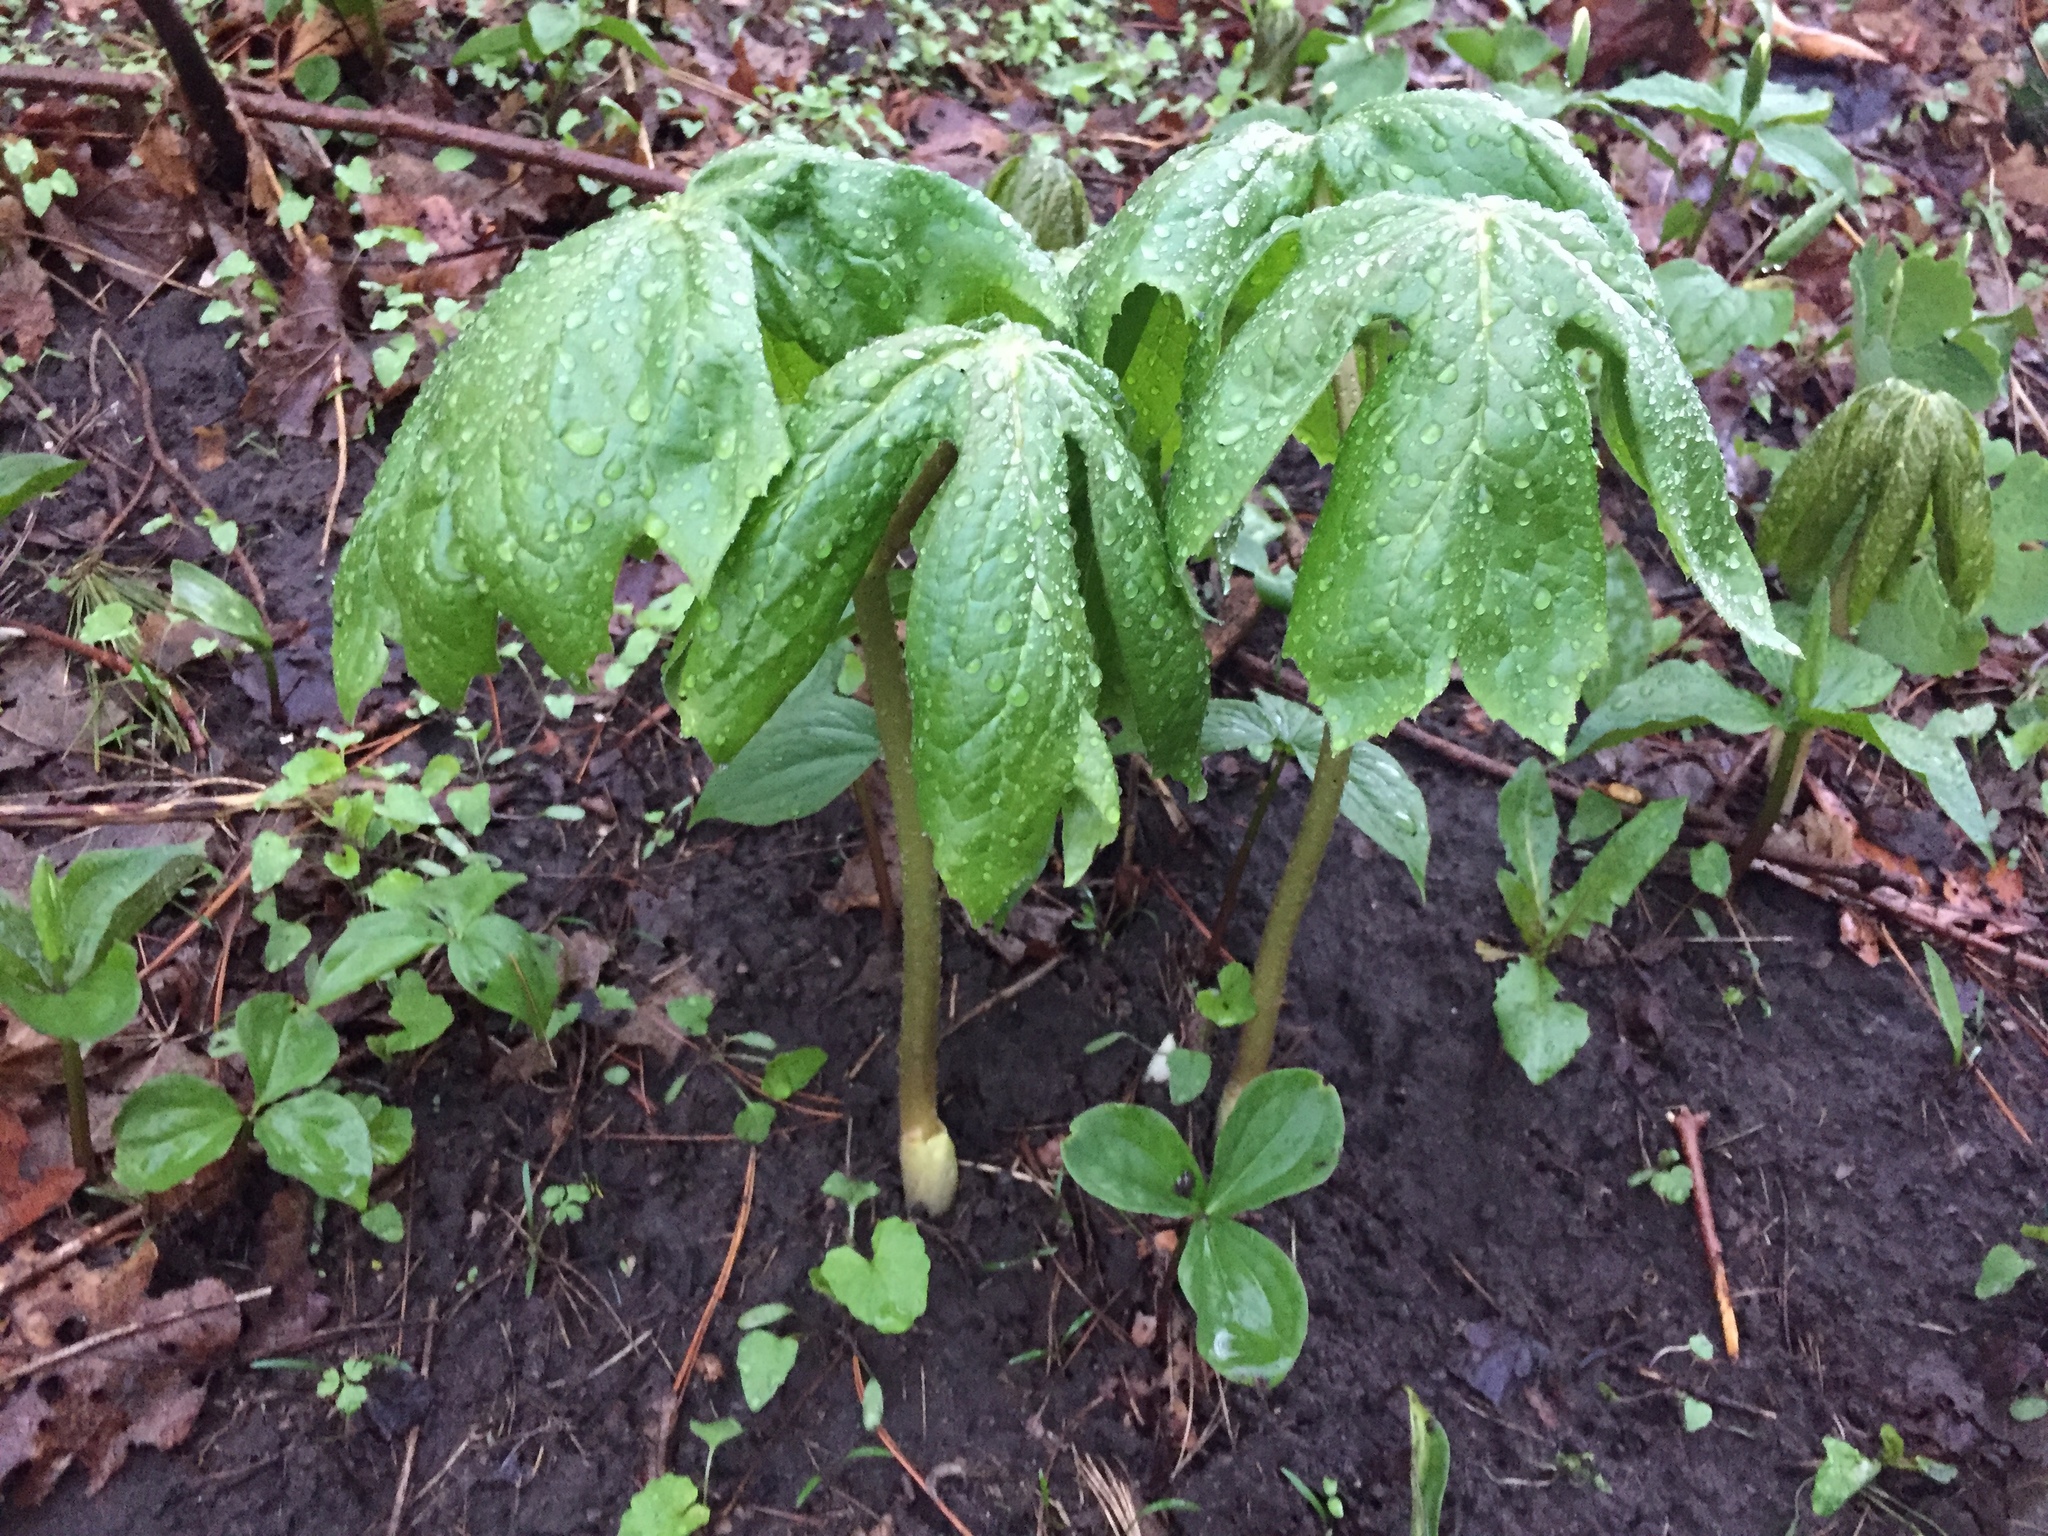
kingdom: Plantae
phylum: Tracheophyta
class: Magnoliopsida
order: Ranunculales
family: Berberidaceae
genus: Podophyllum
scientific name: Podophyllum peltatum
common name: Wild mandrake
